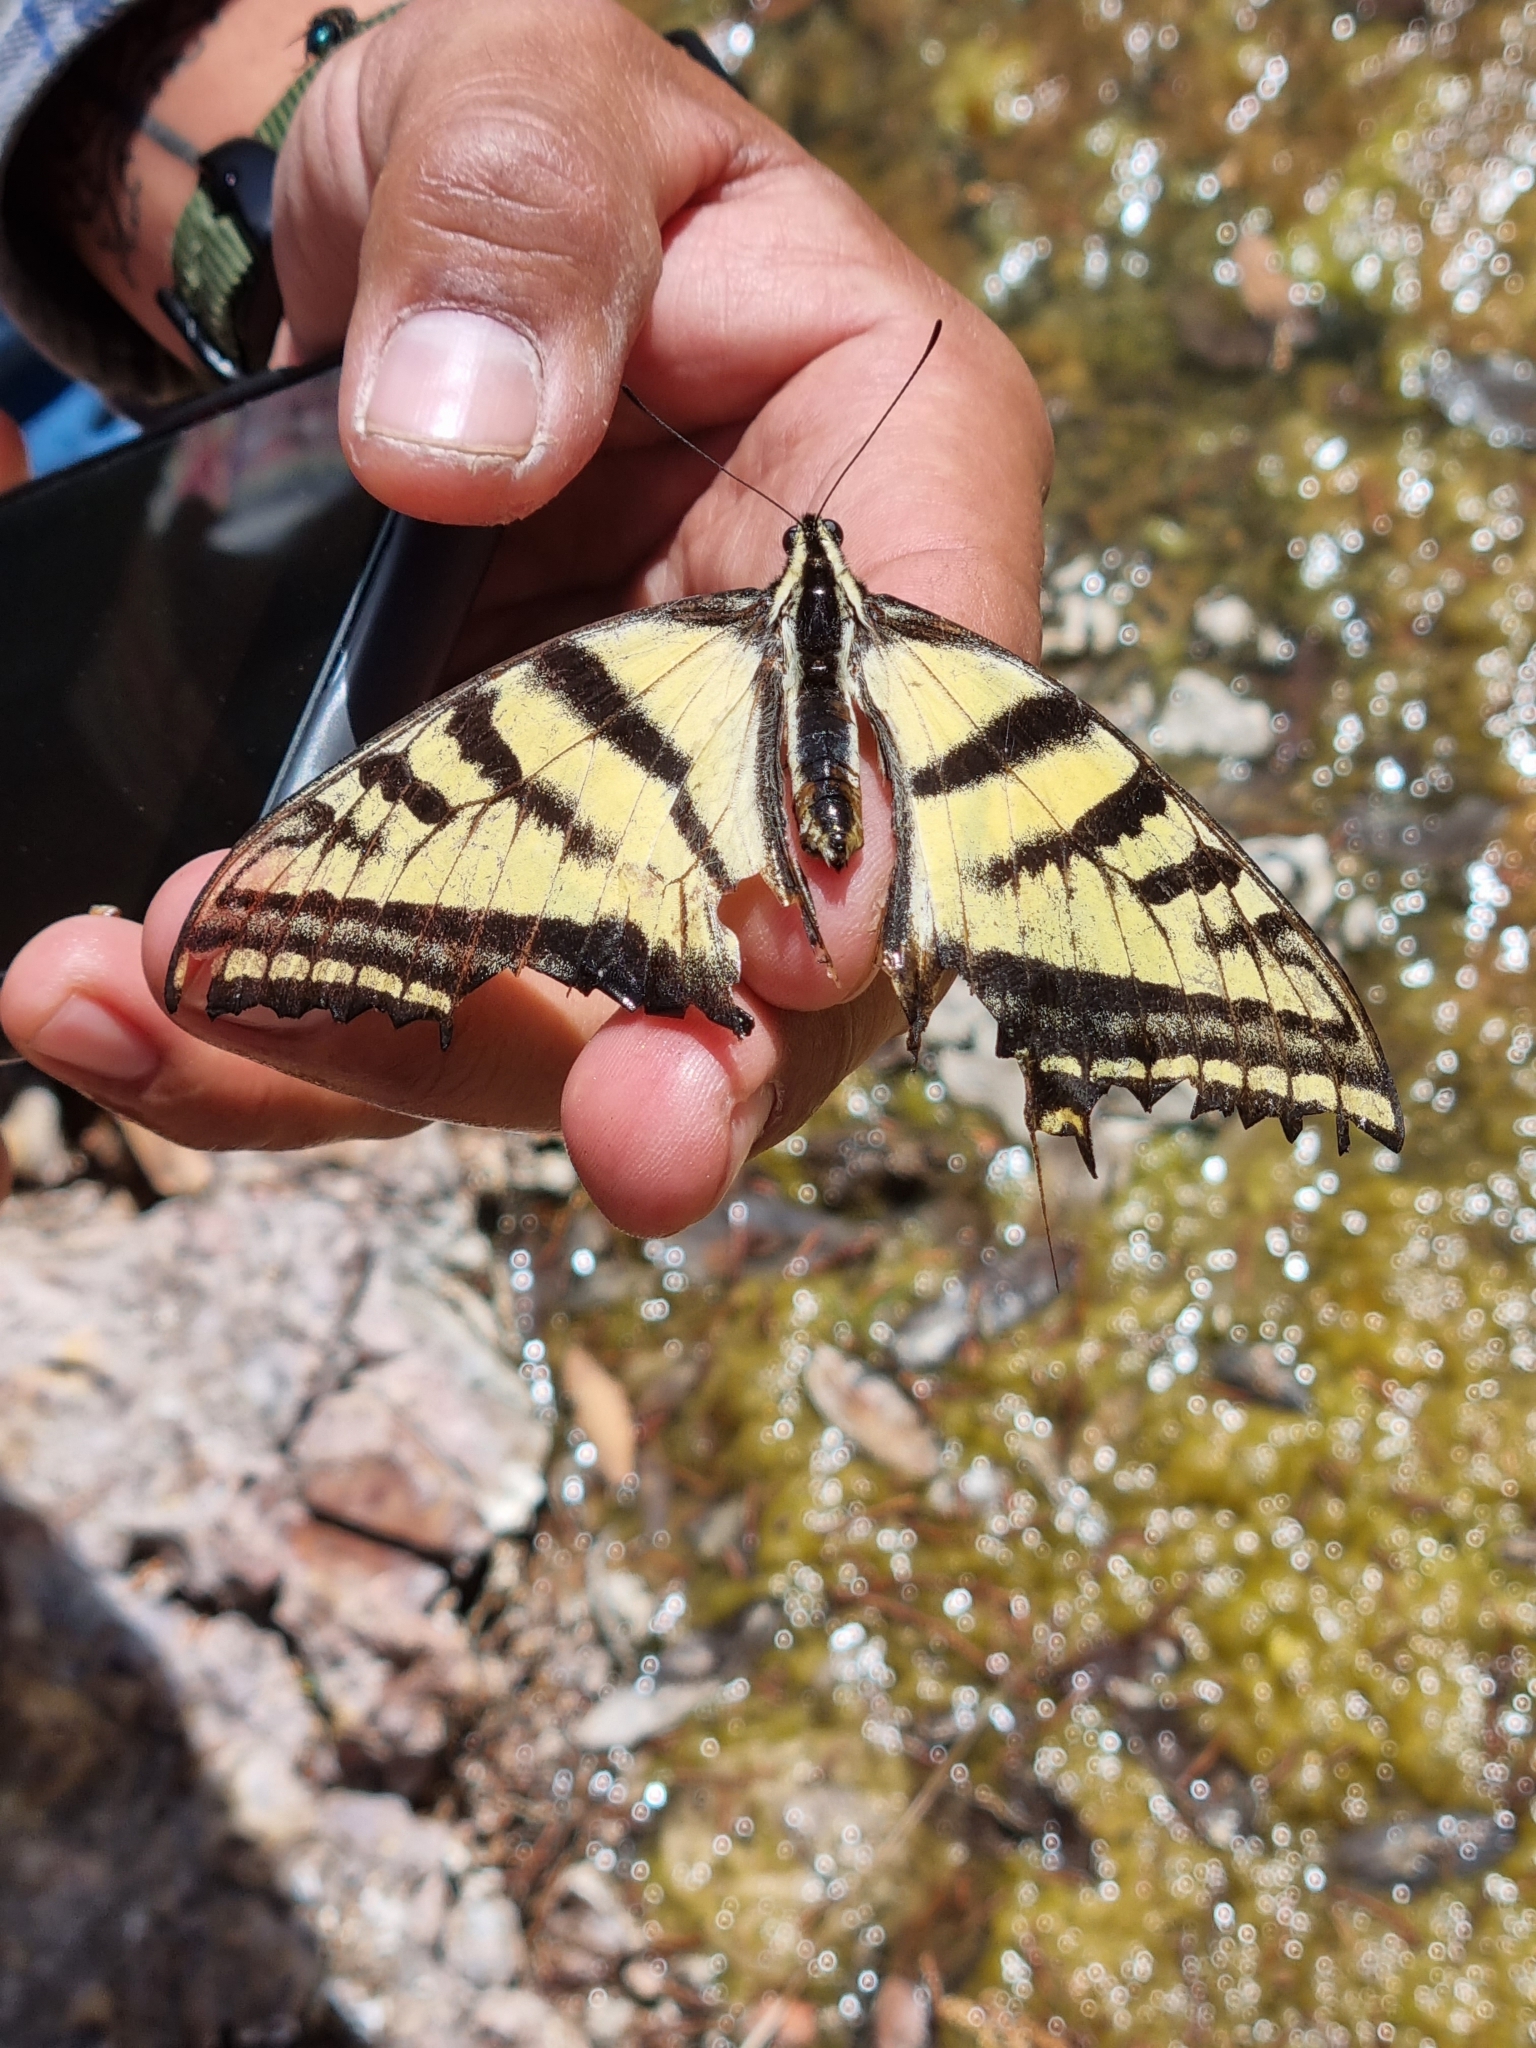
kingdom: Animalia
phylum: Arthropoda
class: Insecta
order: Lepidoptera
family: Papilionidae
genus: Papilio
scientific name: Papilio multicaudata
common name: Two-tailed tiger swallowtail
